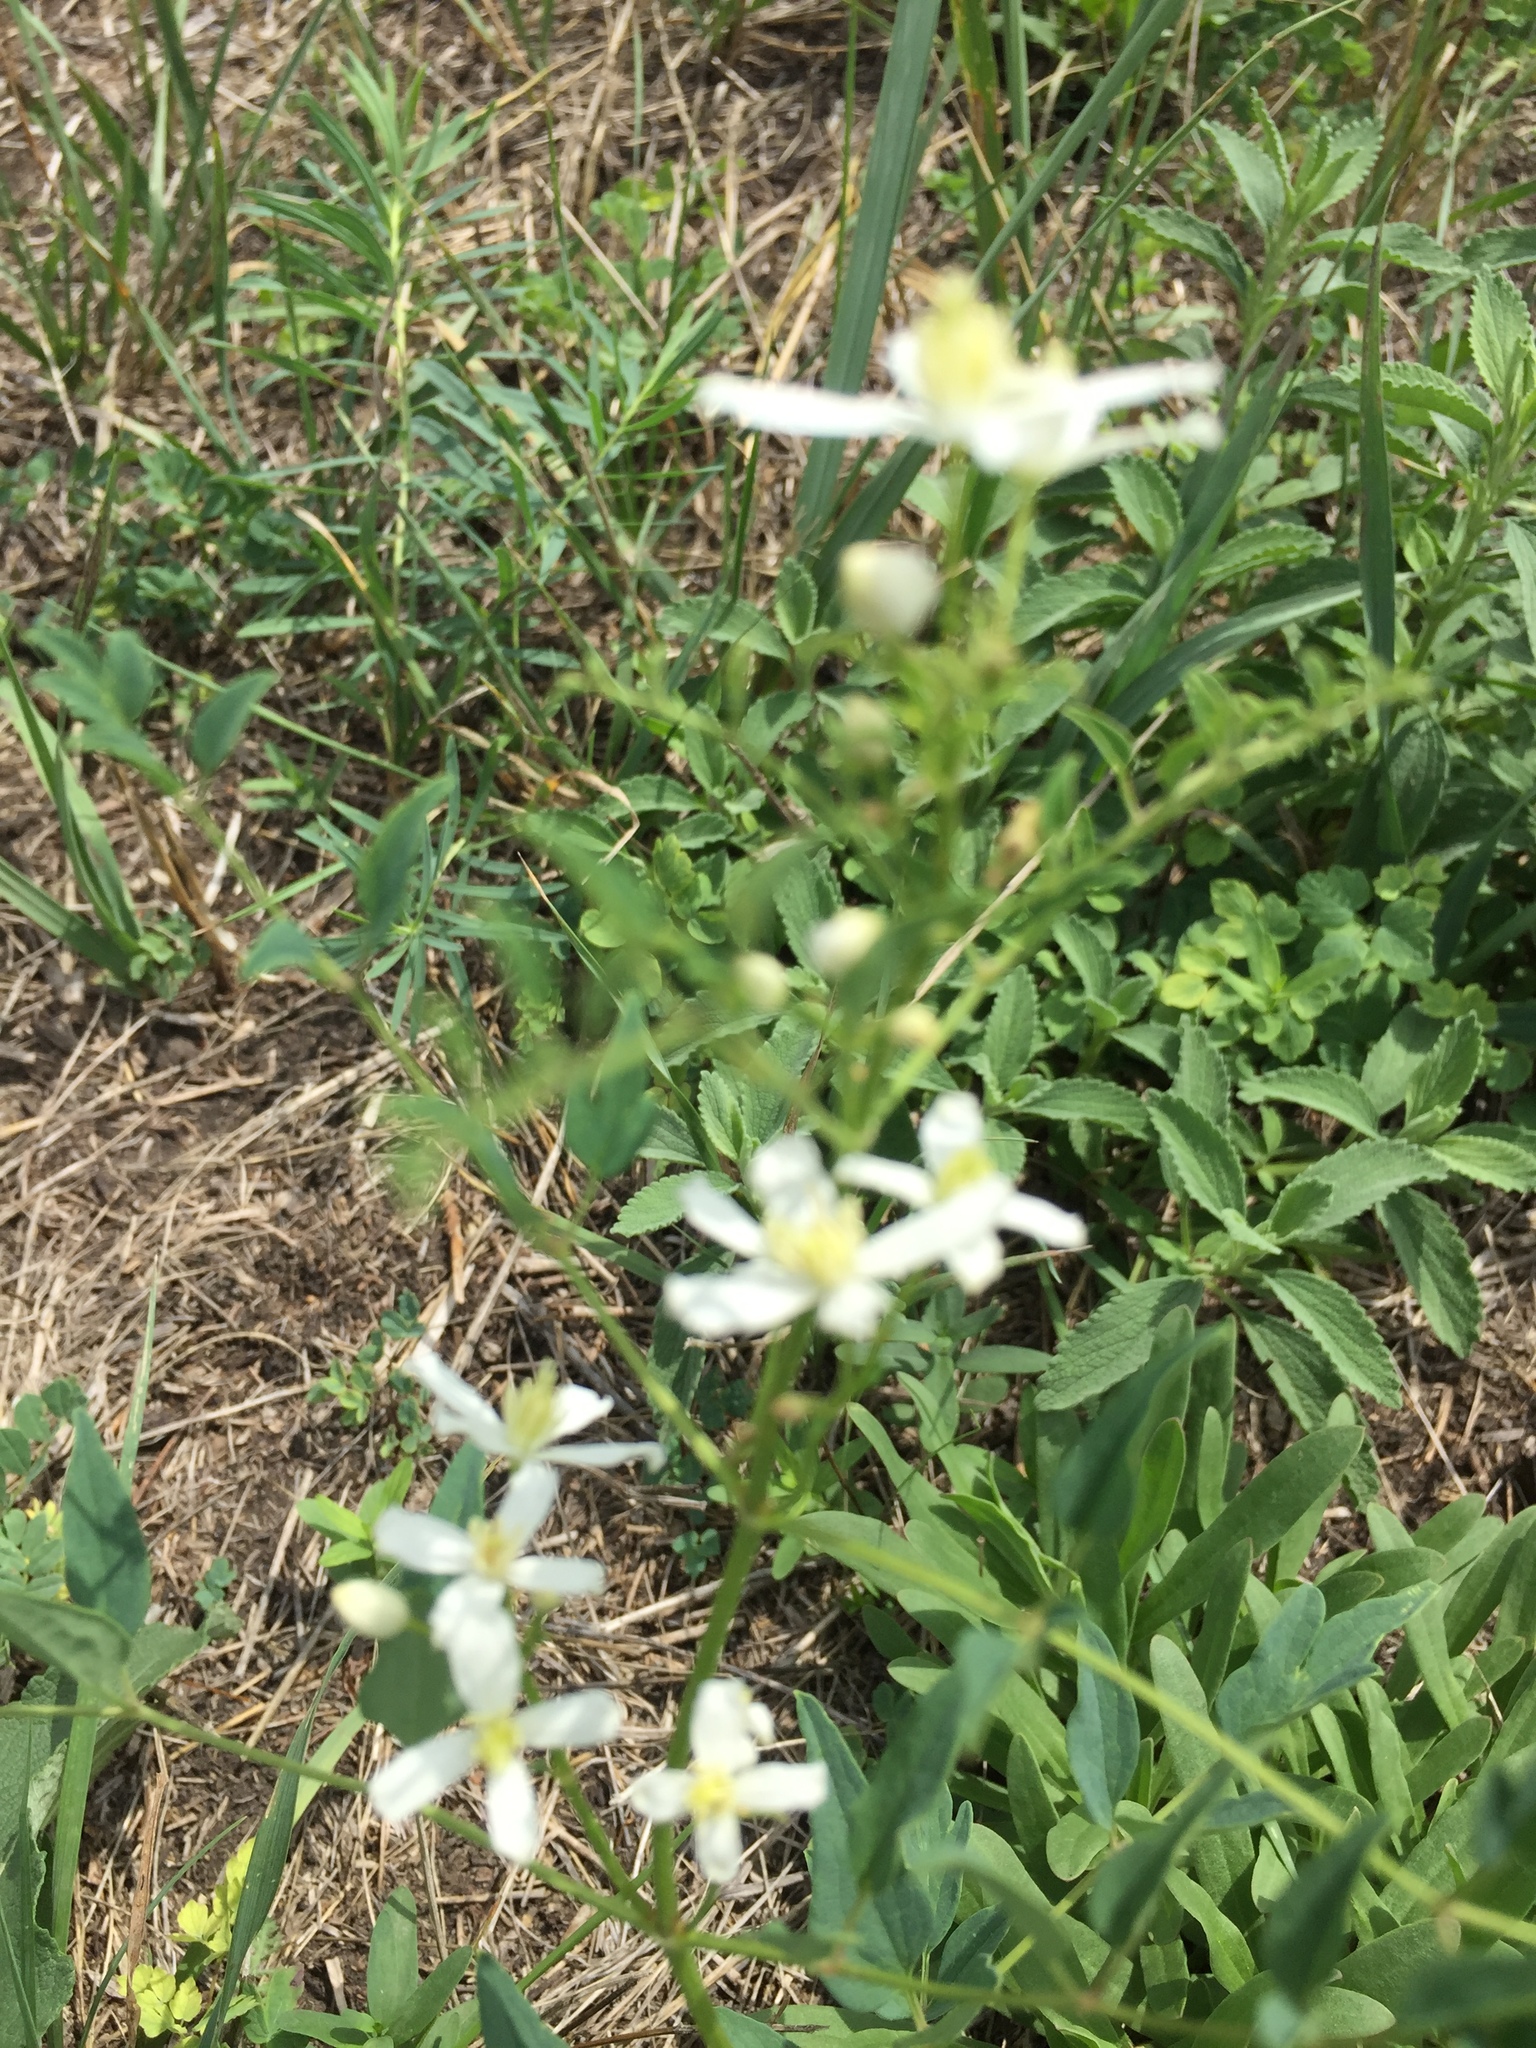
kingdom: Plantae
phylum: Tracheophyta
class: Magnoliopsida
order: Lamiales
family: Lamiaceae
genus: Stachys
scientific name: Stachys recta
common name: Perennial yellow-woundwort
